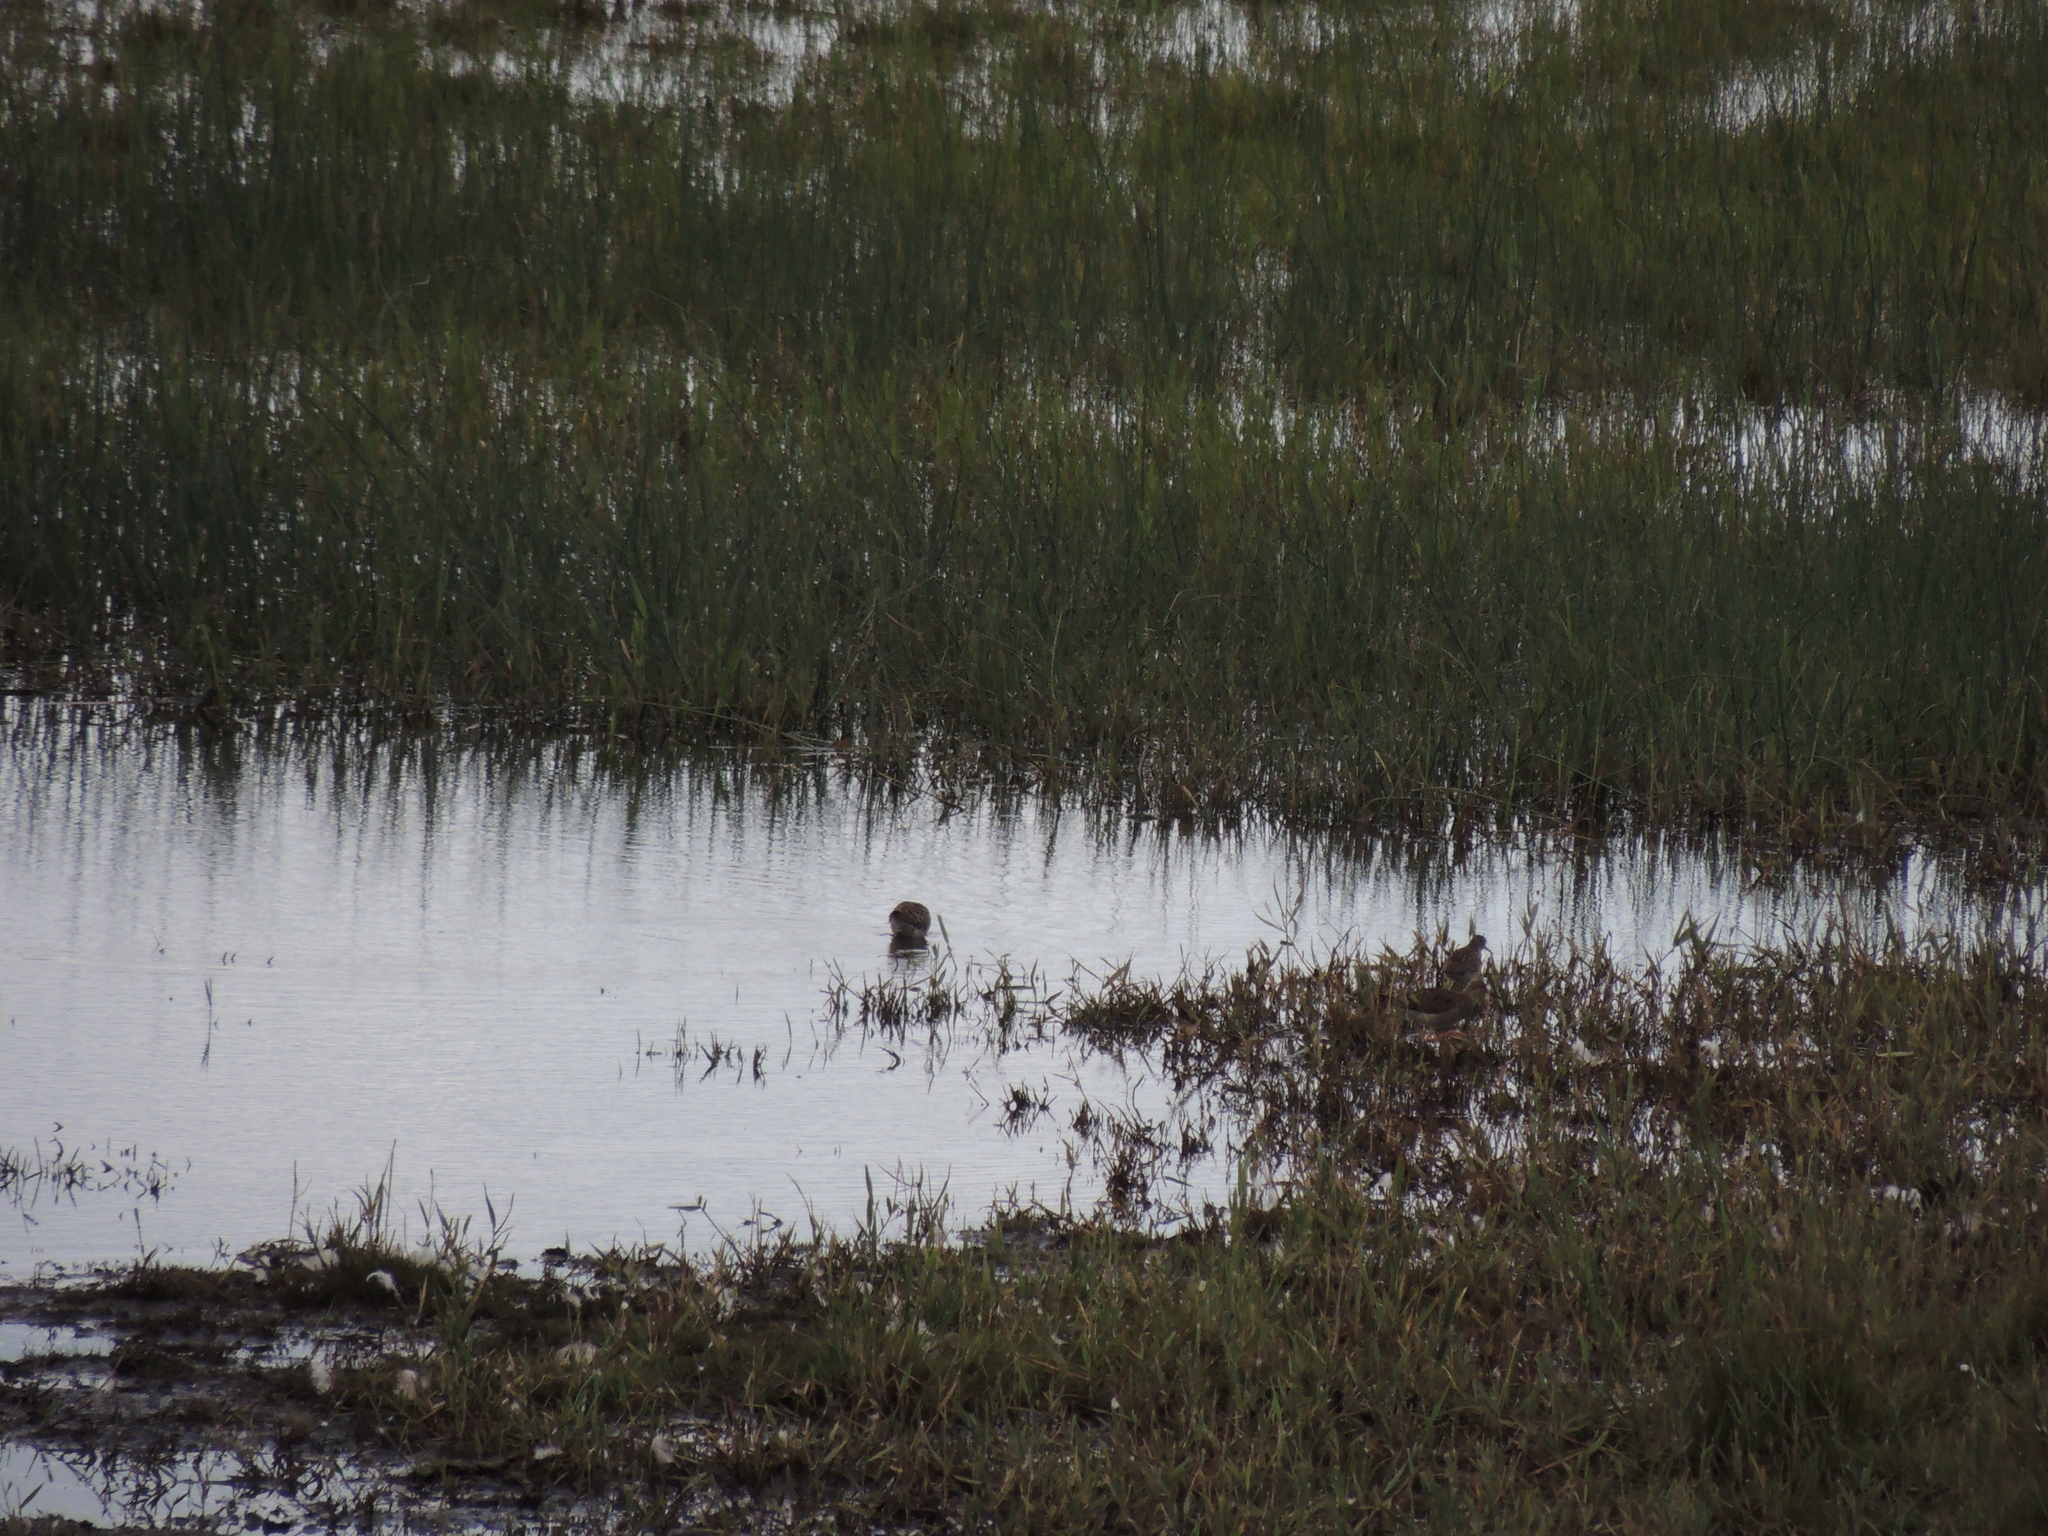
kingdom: Animalia
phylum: Chordata
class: Aves
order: Charadriiformes
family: Scolopacidae
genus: Calidris
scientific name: Calidris pugnax
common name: Ruff
